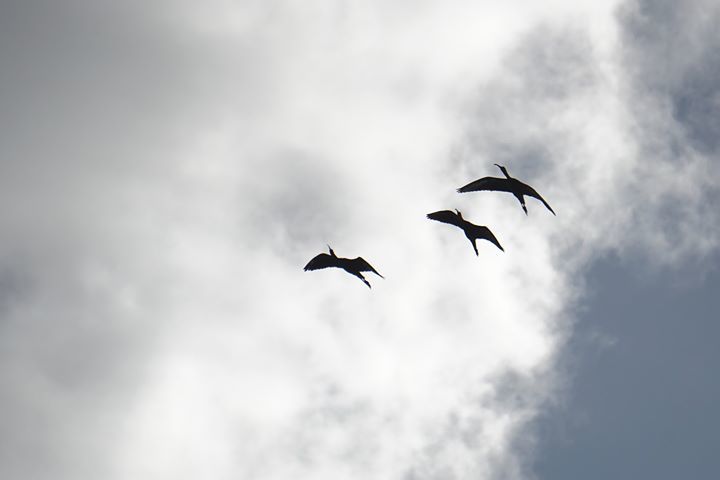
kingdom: Animalia
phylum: Chordata
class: Aves
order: Pelecaniformes
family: Threskiornithidae
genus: Plegadis
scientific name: Plegadis falcinellus
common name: Glossy ibis
